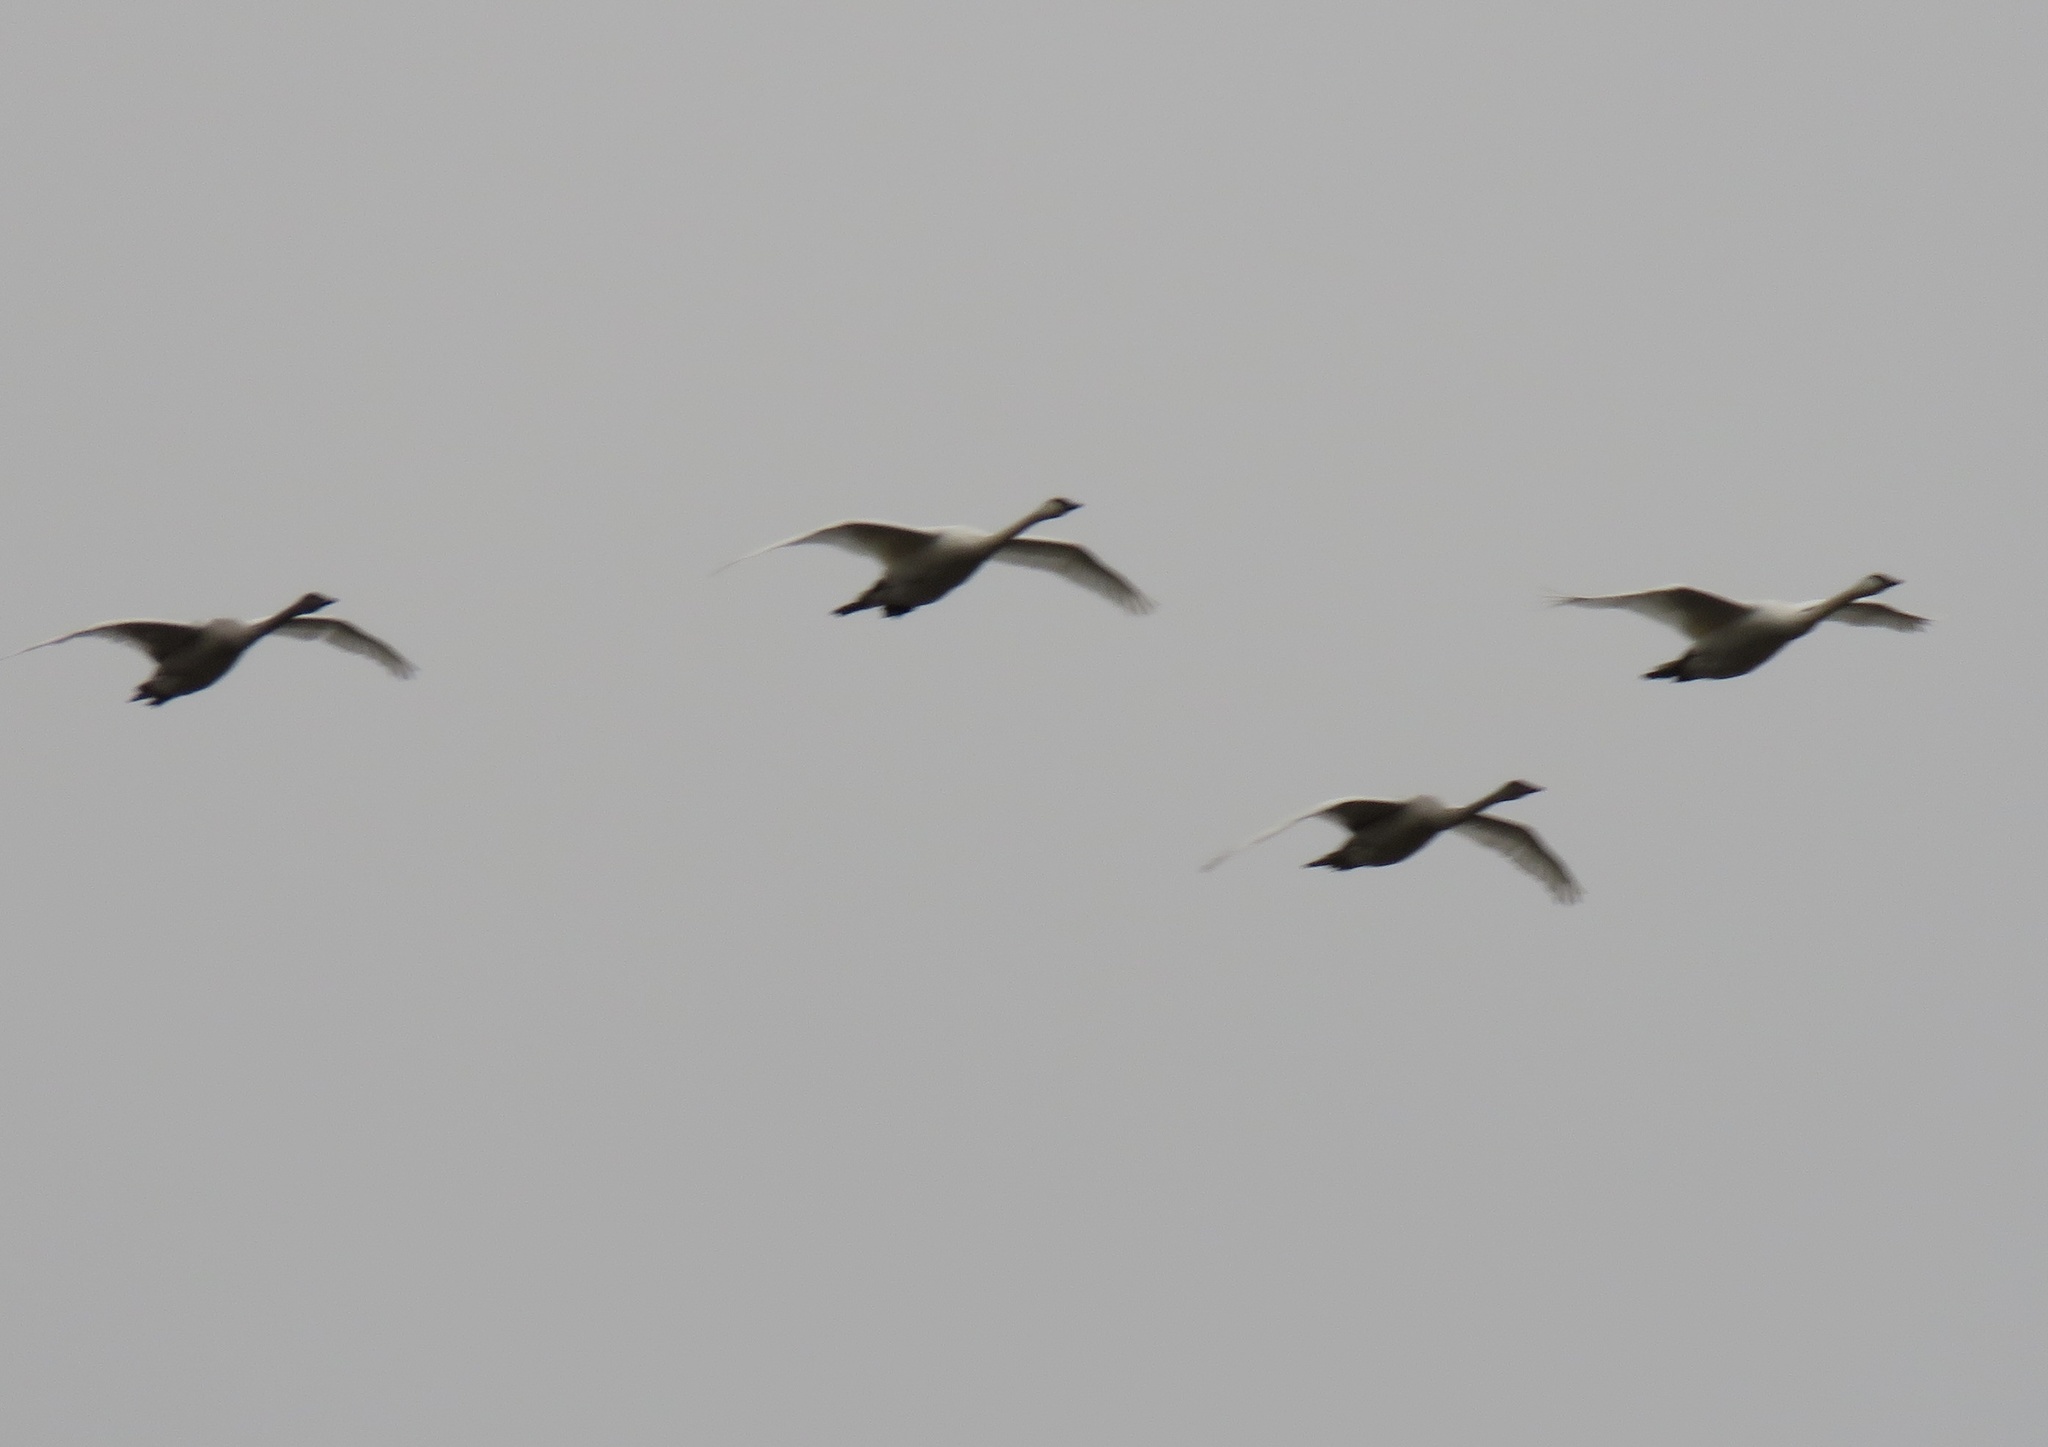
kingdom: Animalia
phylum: Chordata
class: Aves
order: Anseriformes
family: Anatidae
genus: Cygnus
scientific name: Cygnus buccinator
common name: Trumpeter swan
